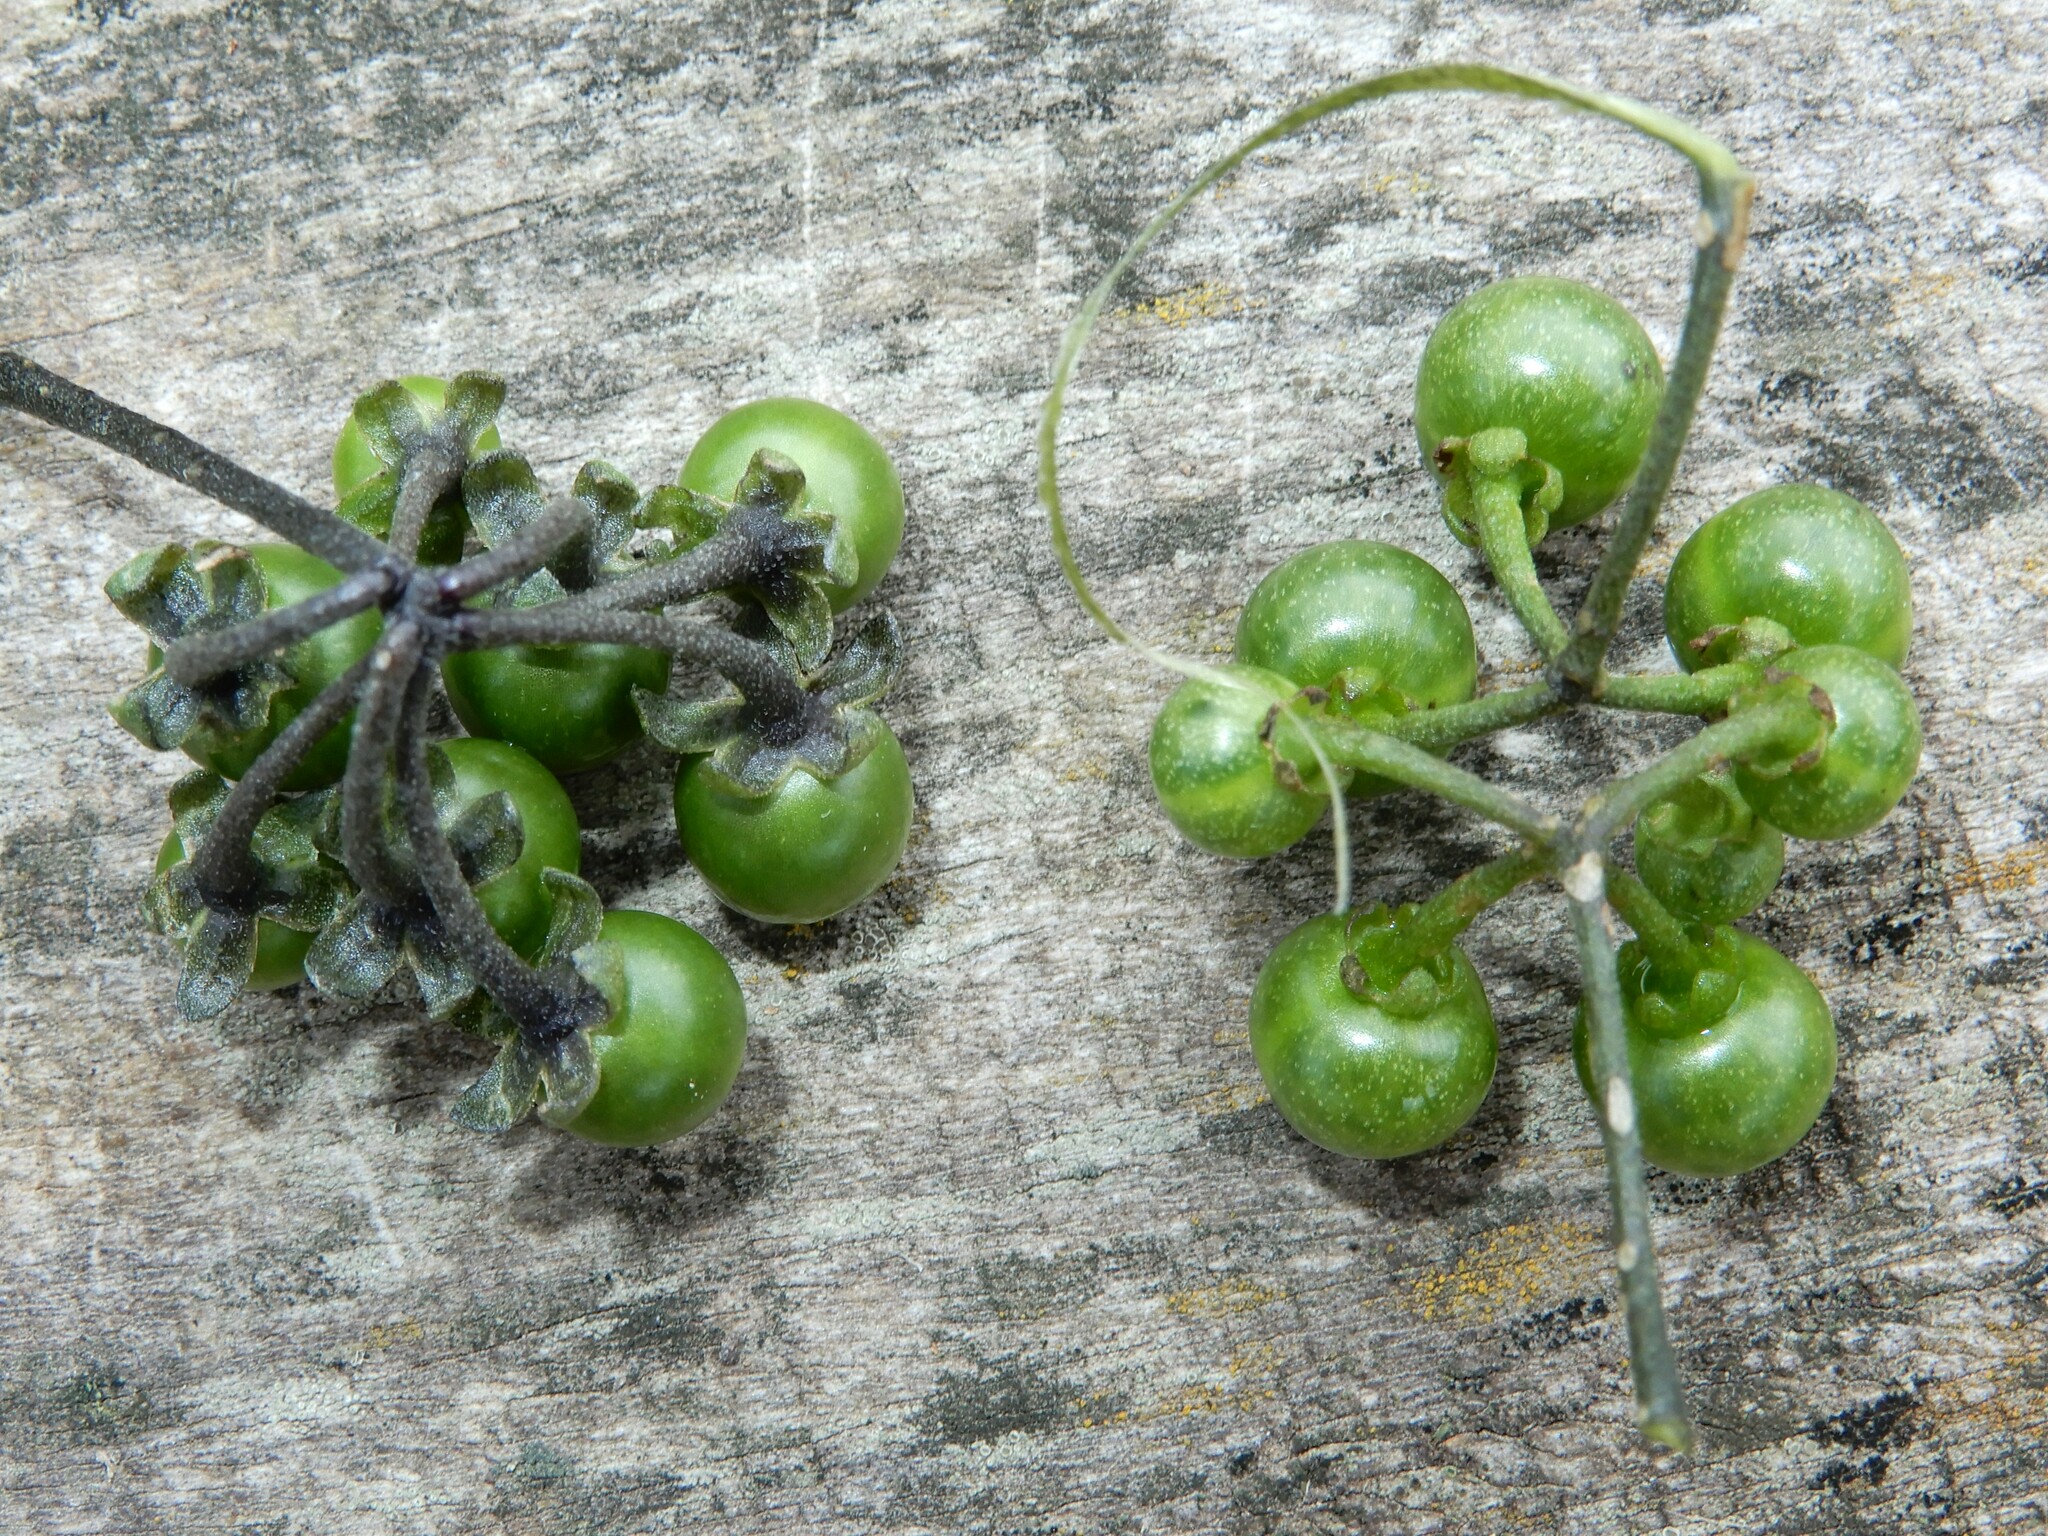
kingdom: Plantae
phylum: Tracheophyta
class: Magnoliopsida
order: Solanales
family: Solanaceae
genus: Solanum
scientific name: Solanum americanum
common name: American black nightshade
